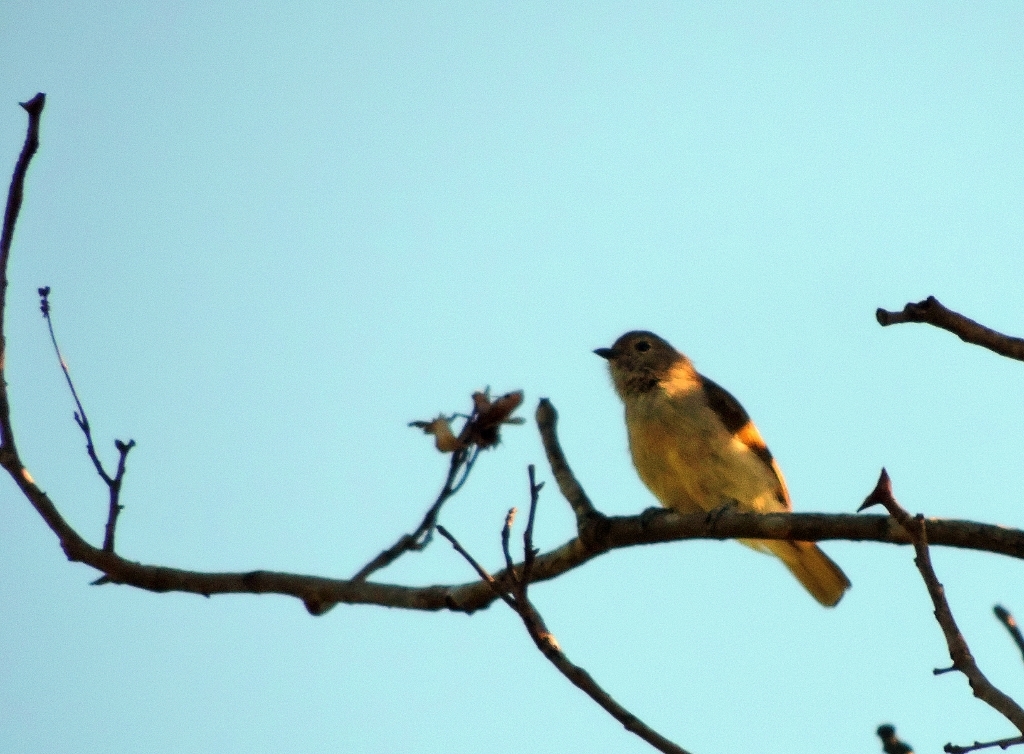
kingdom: Animalia
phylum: Chordata
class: Aves
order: Piciformes
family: Indicatoridae
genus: Prodotiscus
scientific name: Prodotiscus zambesiae
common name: Green-backed honeybird
